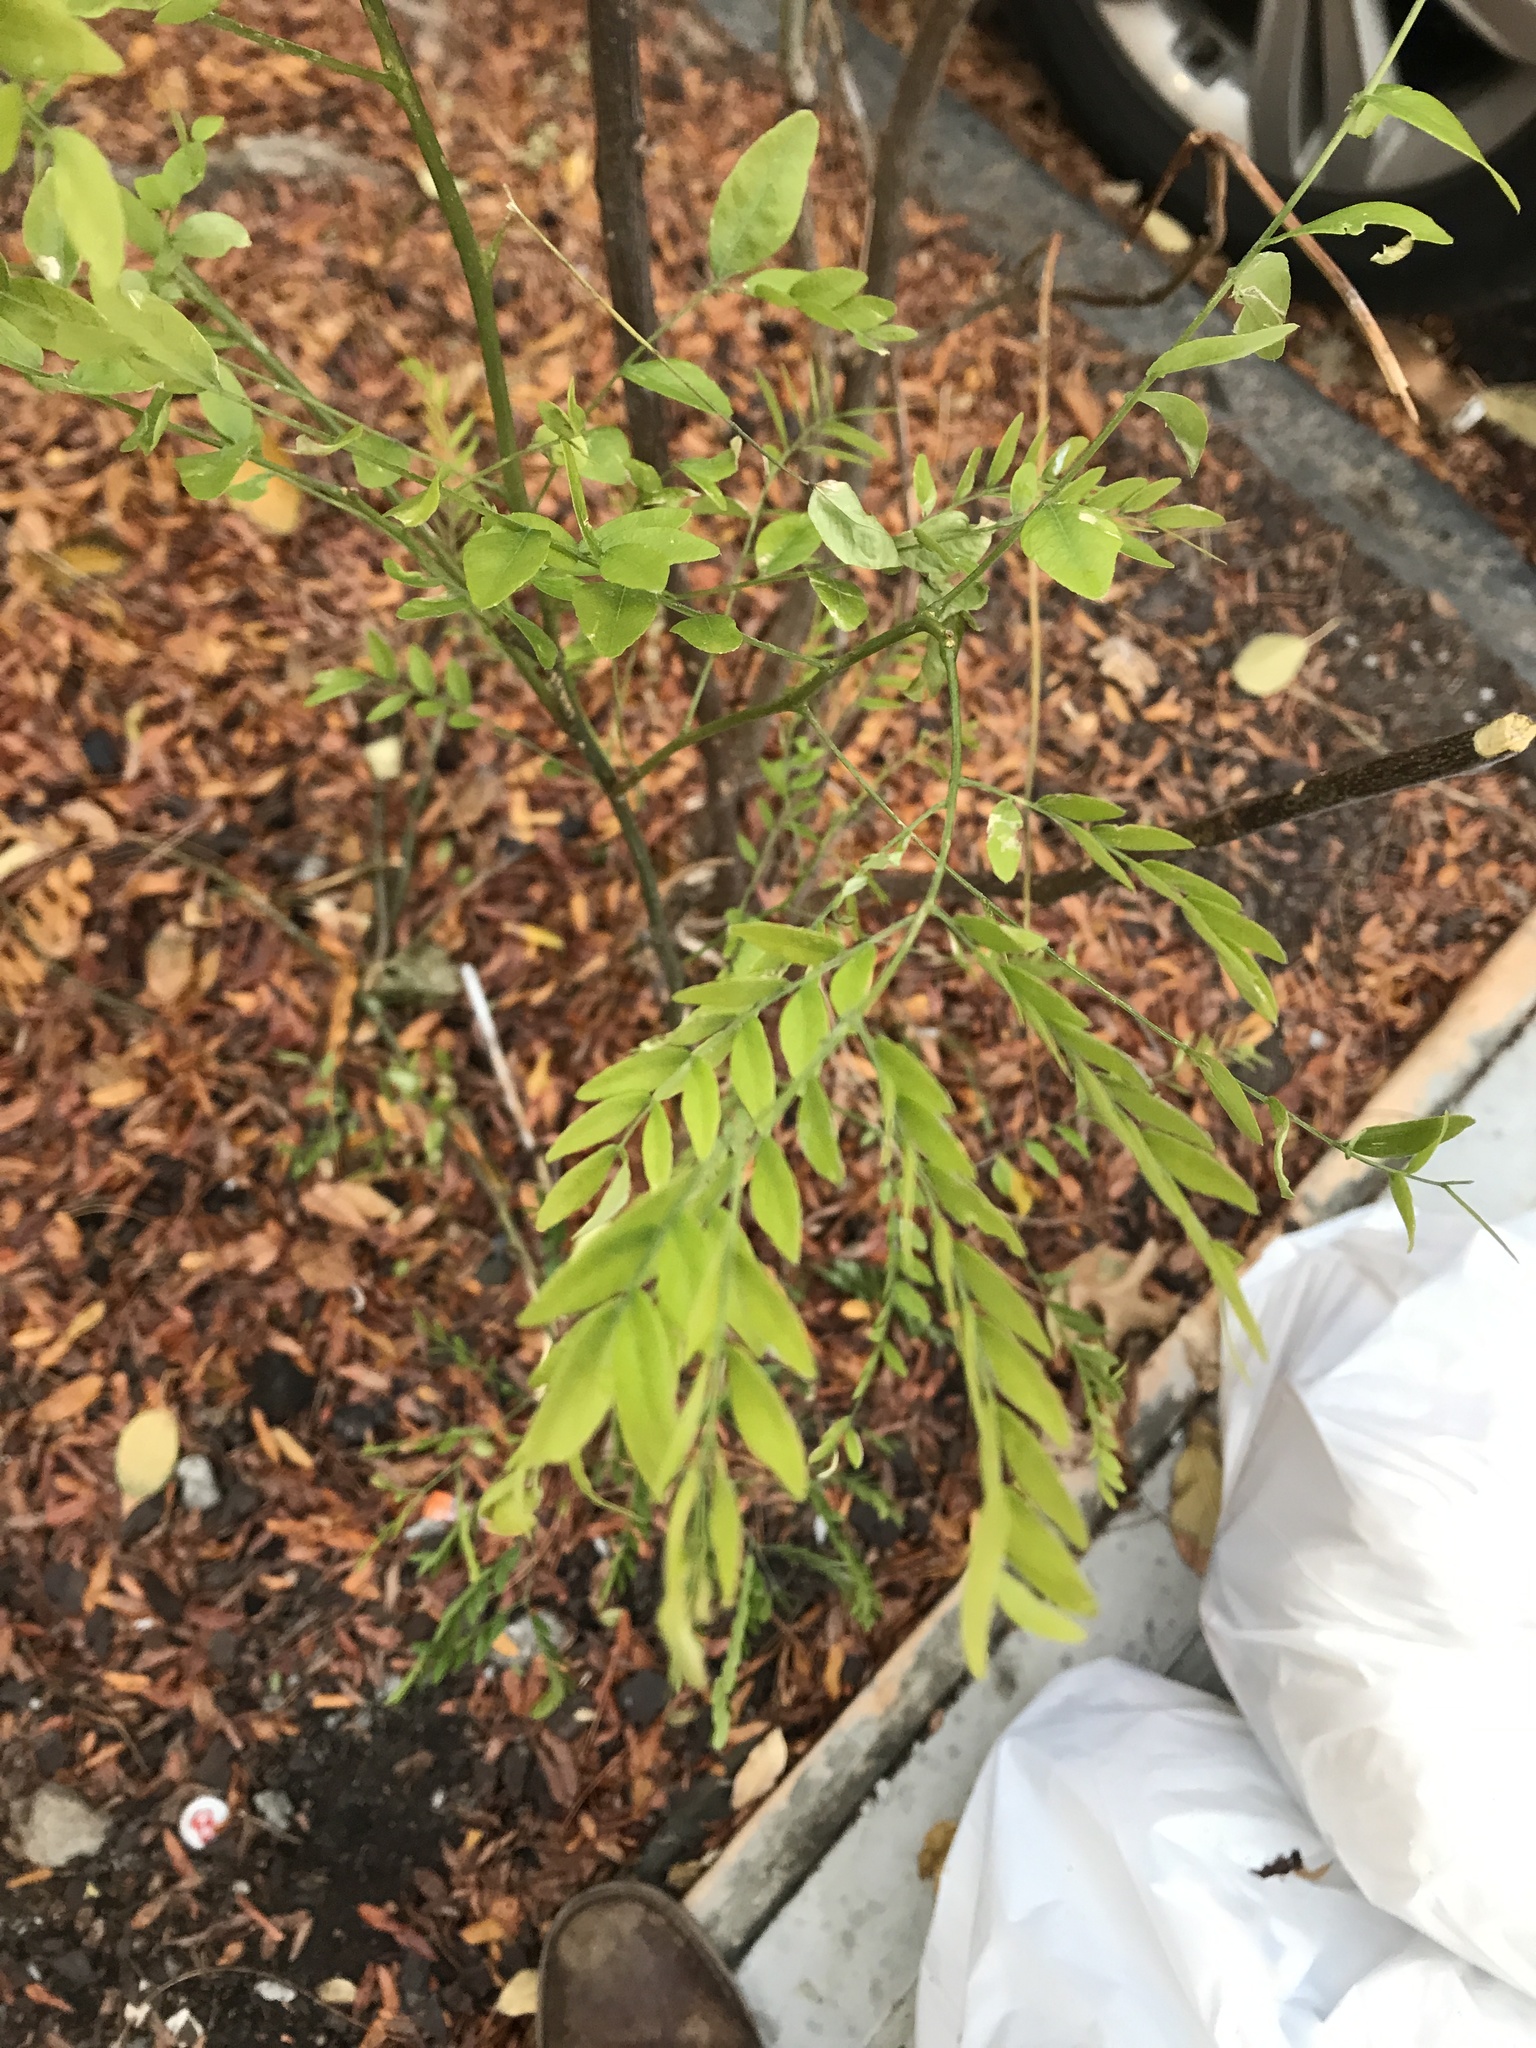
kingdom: Plantae
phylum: Tracheophyta
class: Magnoliopsida
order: Fabales
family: Fabaceae
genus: Gleditsia
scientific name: Gleditsia triacanthos
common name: Common honeylocust
